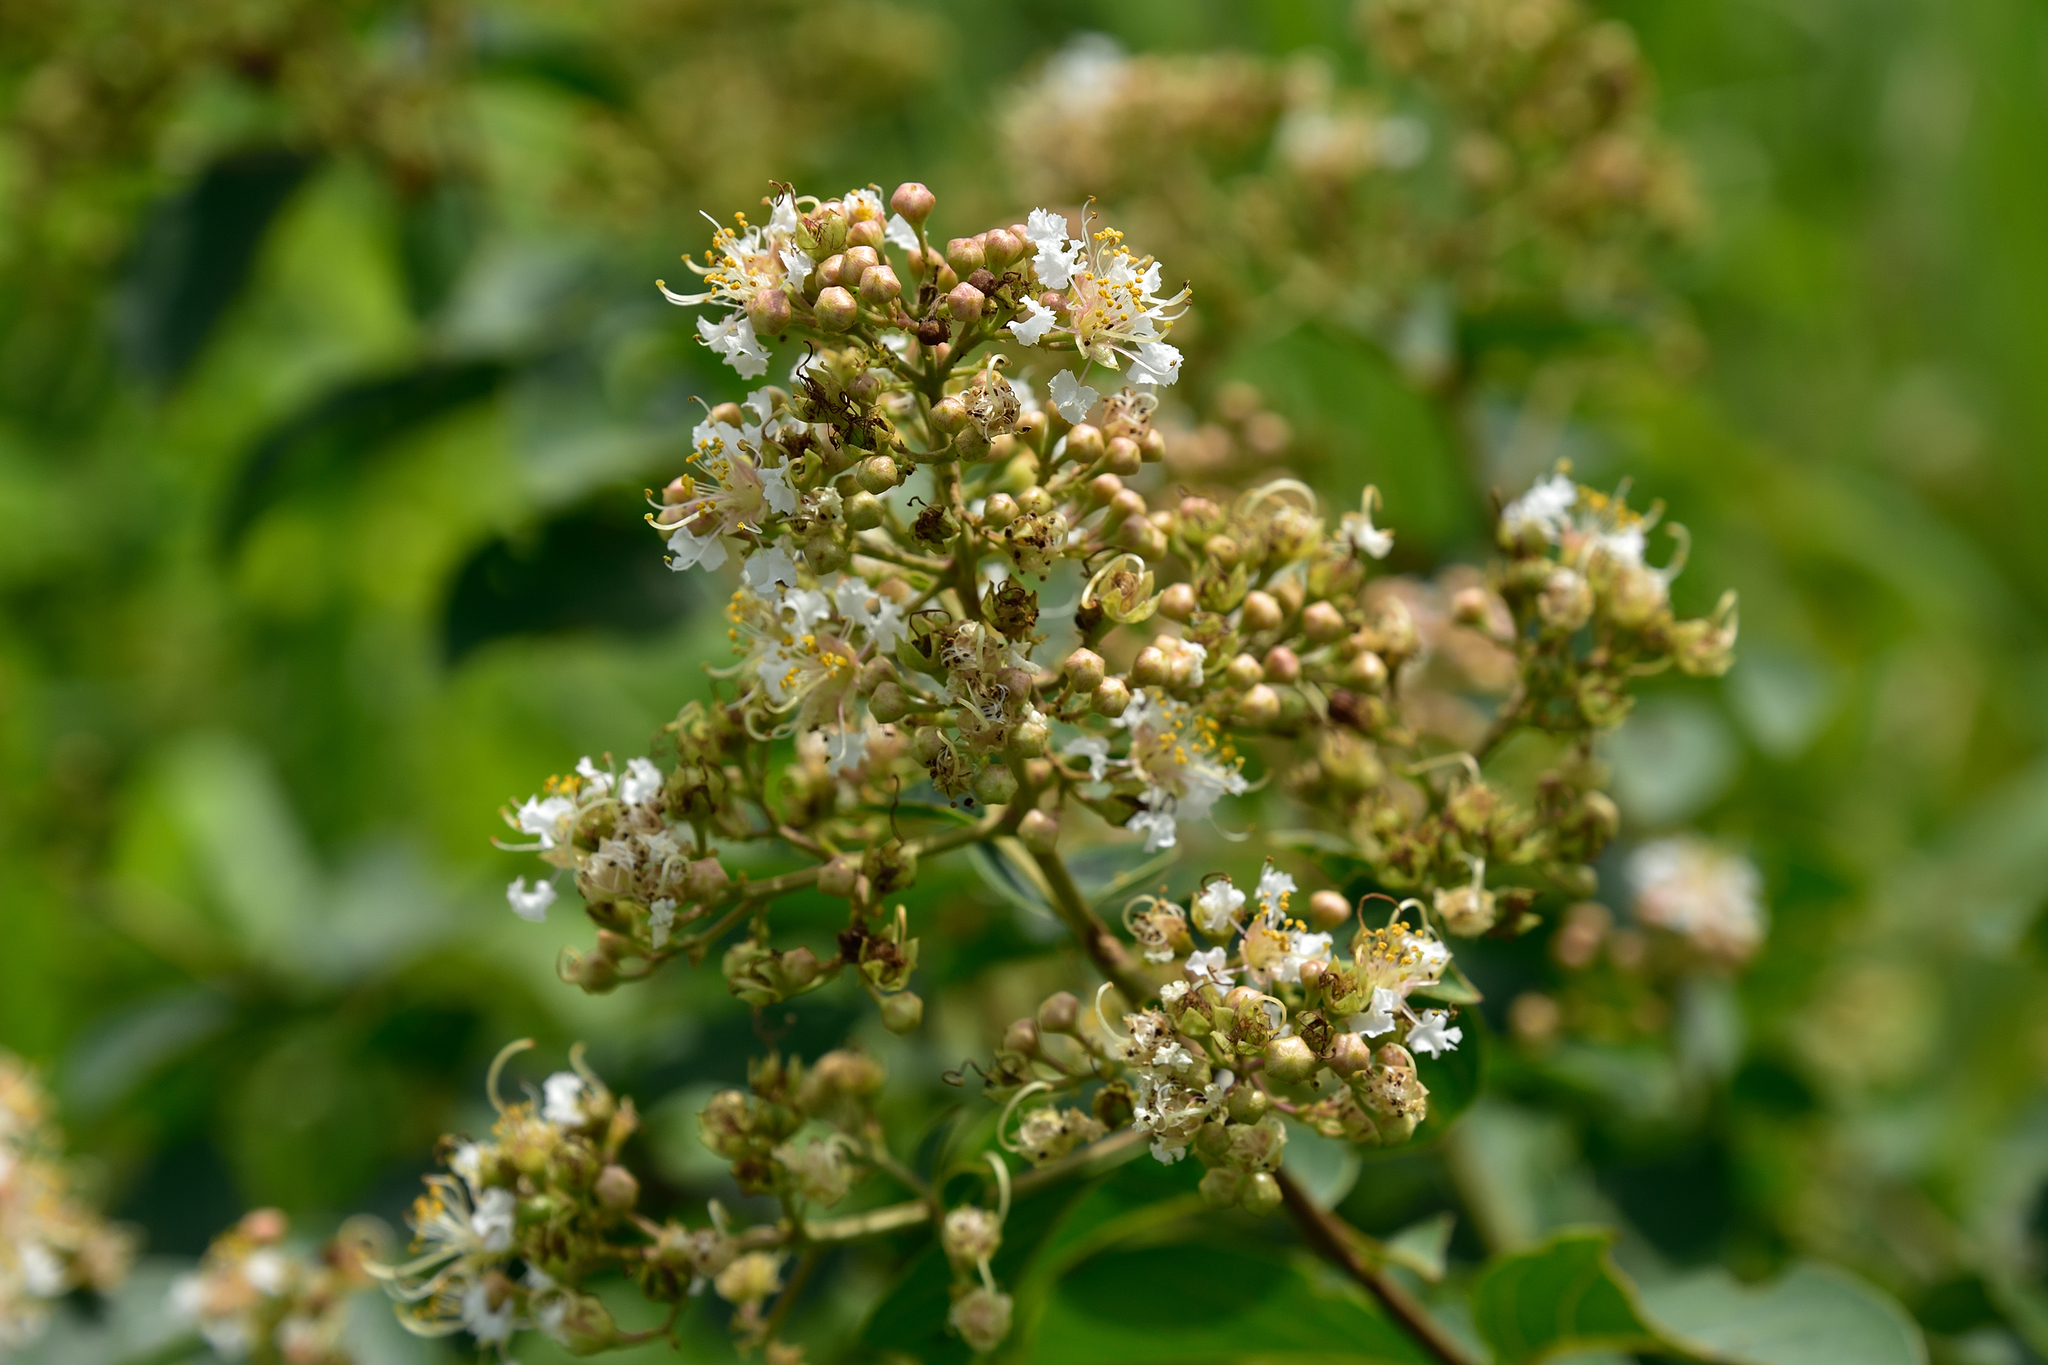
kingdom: Plantae
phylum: Tracheophyta
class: Magnoliopsida
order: Myrtales
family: Lythraceae
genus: Lagerstroemia
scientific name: Lagerstroemia subcostata
